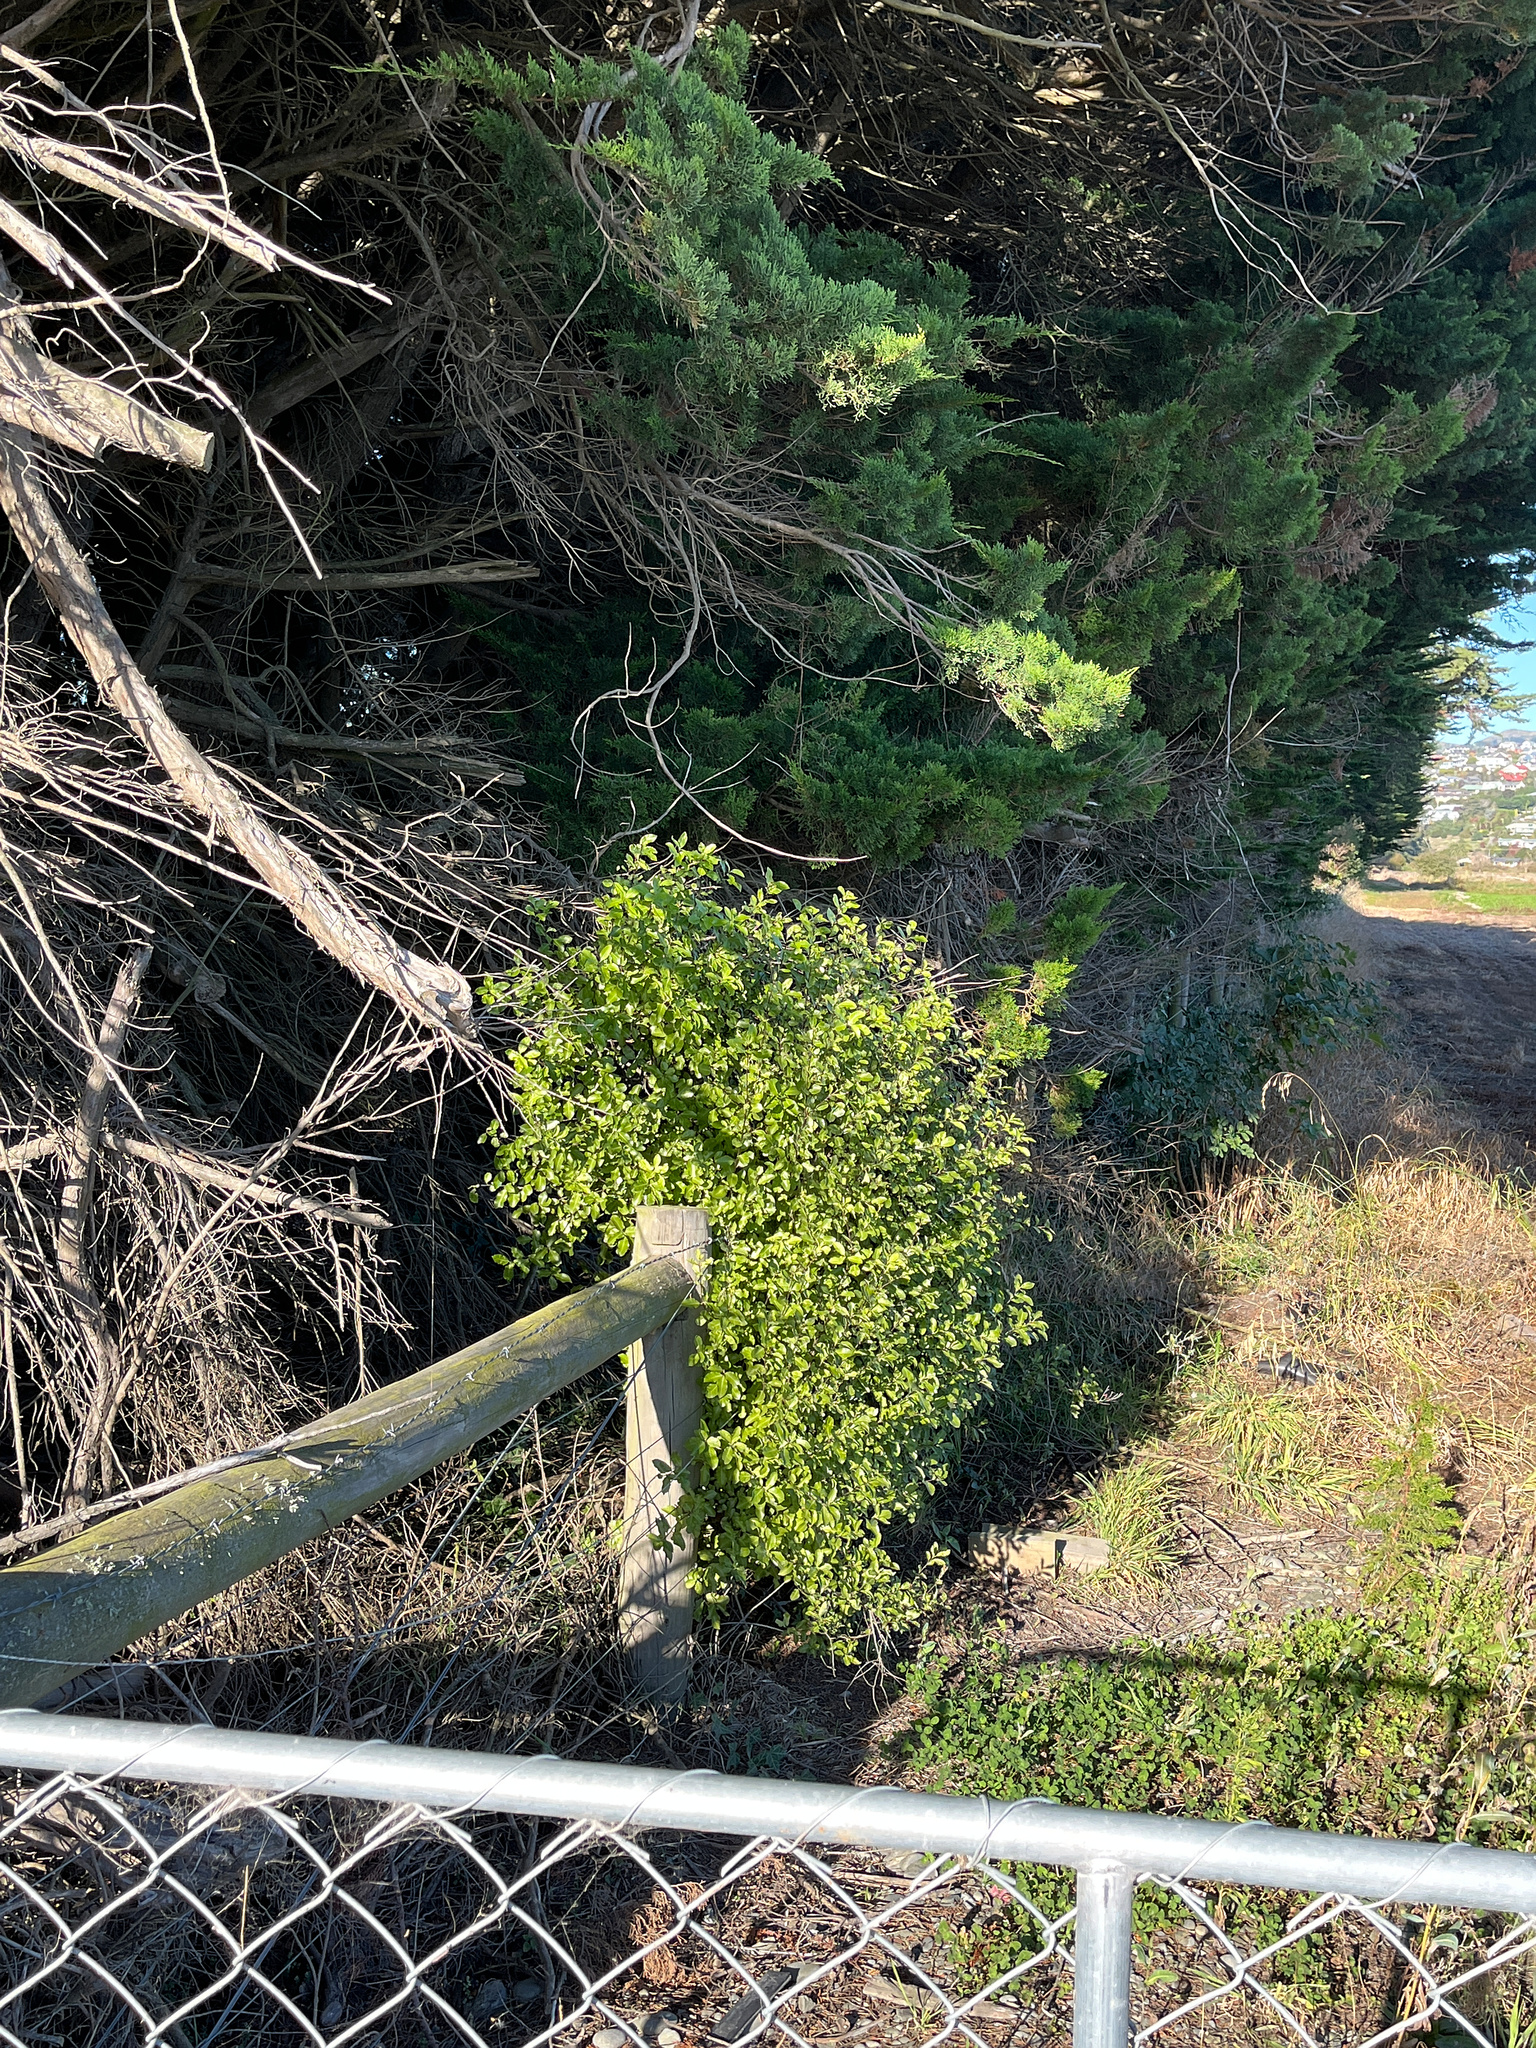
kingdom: Plantae
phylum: Tracheophyta
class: Magnoliopsida
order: Apiales
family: Pittosporaceae
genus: Pittosporum
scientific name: Pittosporum tenuifolium
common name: Kohuhu
